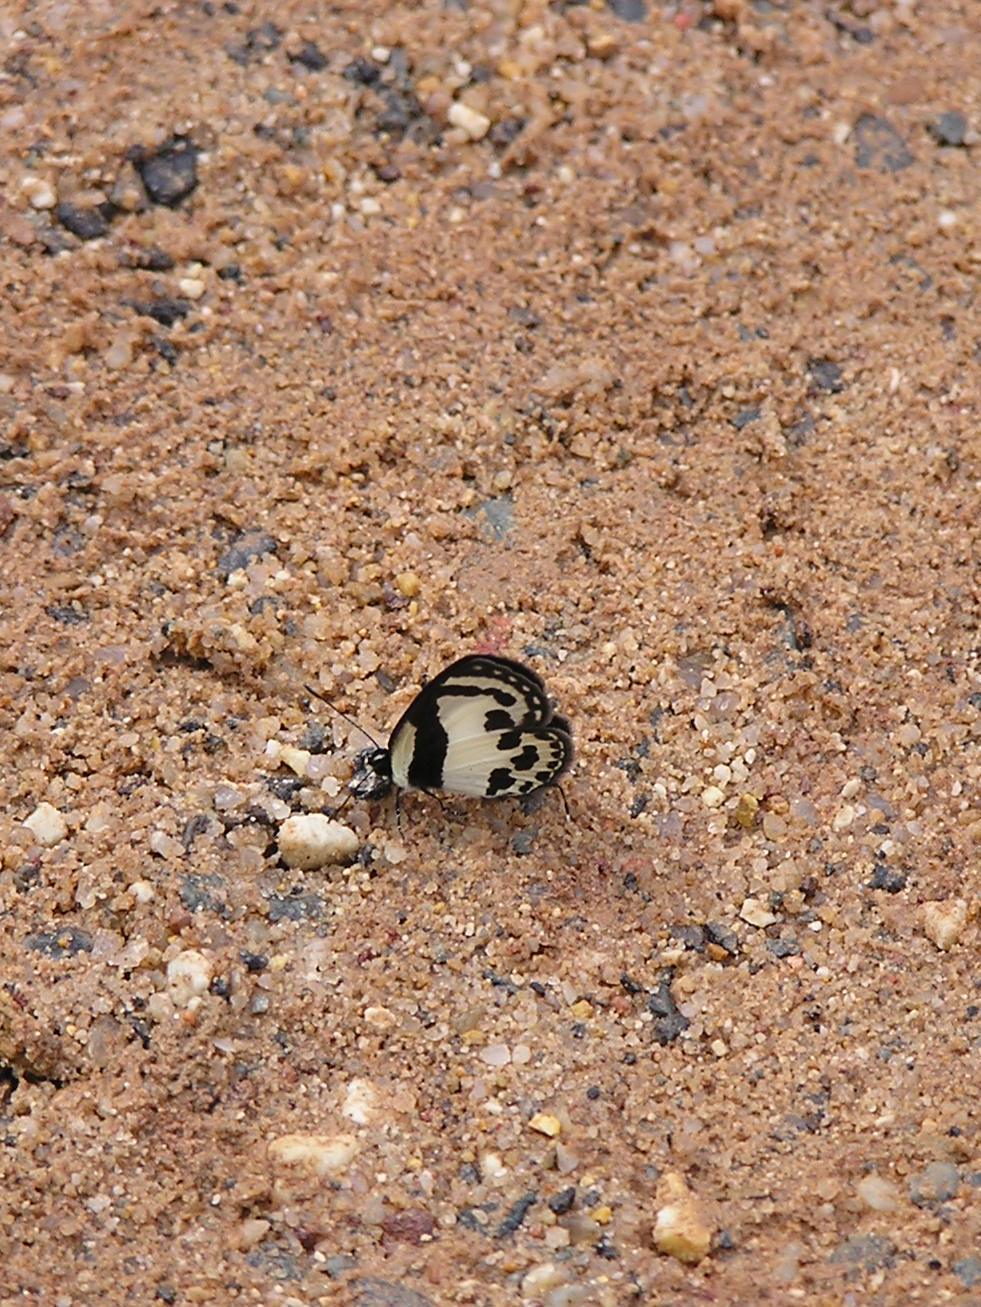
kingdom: Animalia
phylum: Arthropoda
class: Insecta
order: Lepidoptera
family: Lycaenidae
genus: Caleta
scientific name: Caleta roxus
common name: Straight pierrot
